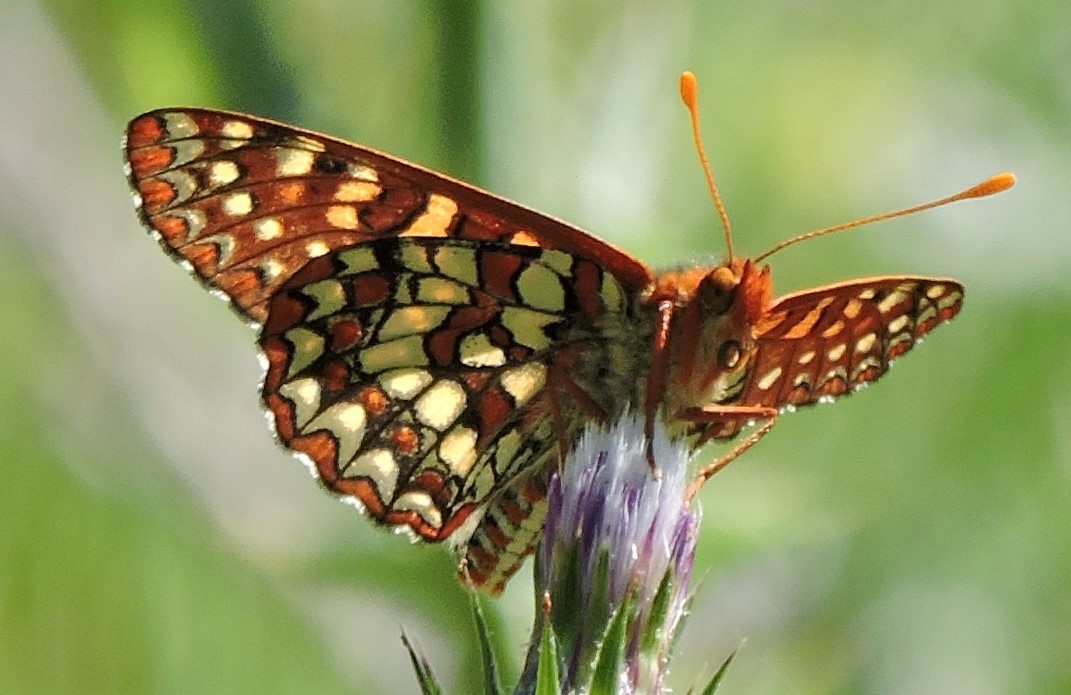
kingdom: Animalia
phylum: Arthropoda
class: Insecta
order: Lepidoptera
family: Nymphalidae
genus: Occidryas
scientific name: Occidryas chalcedona
